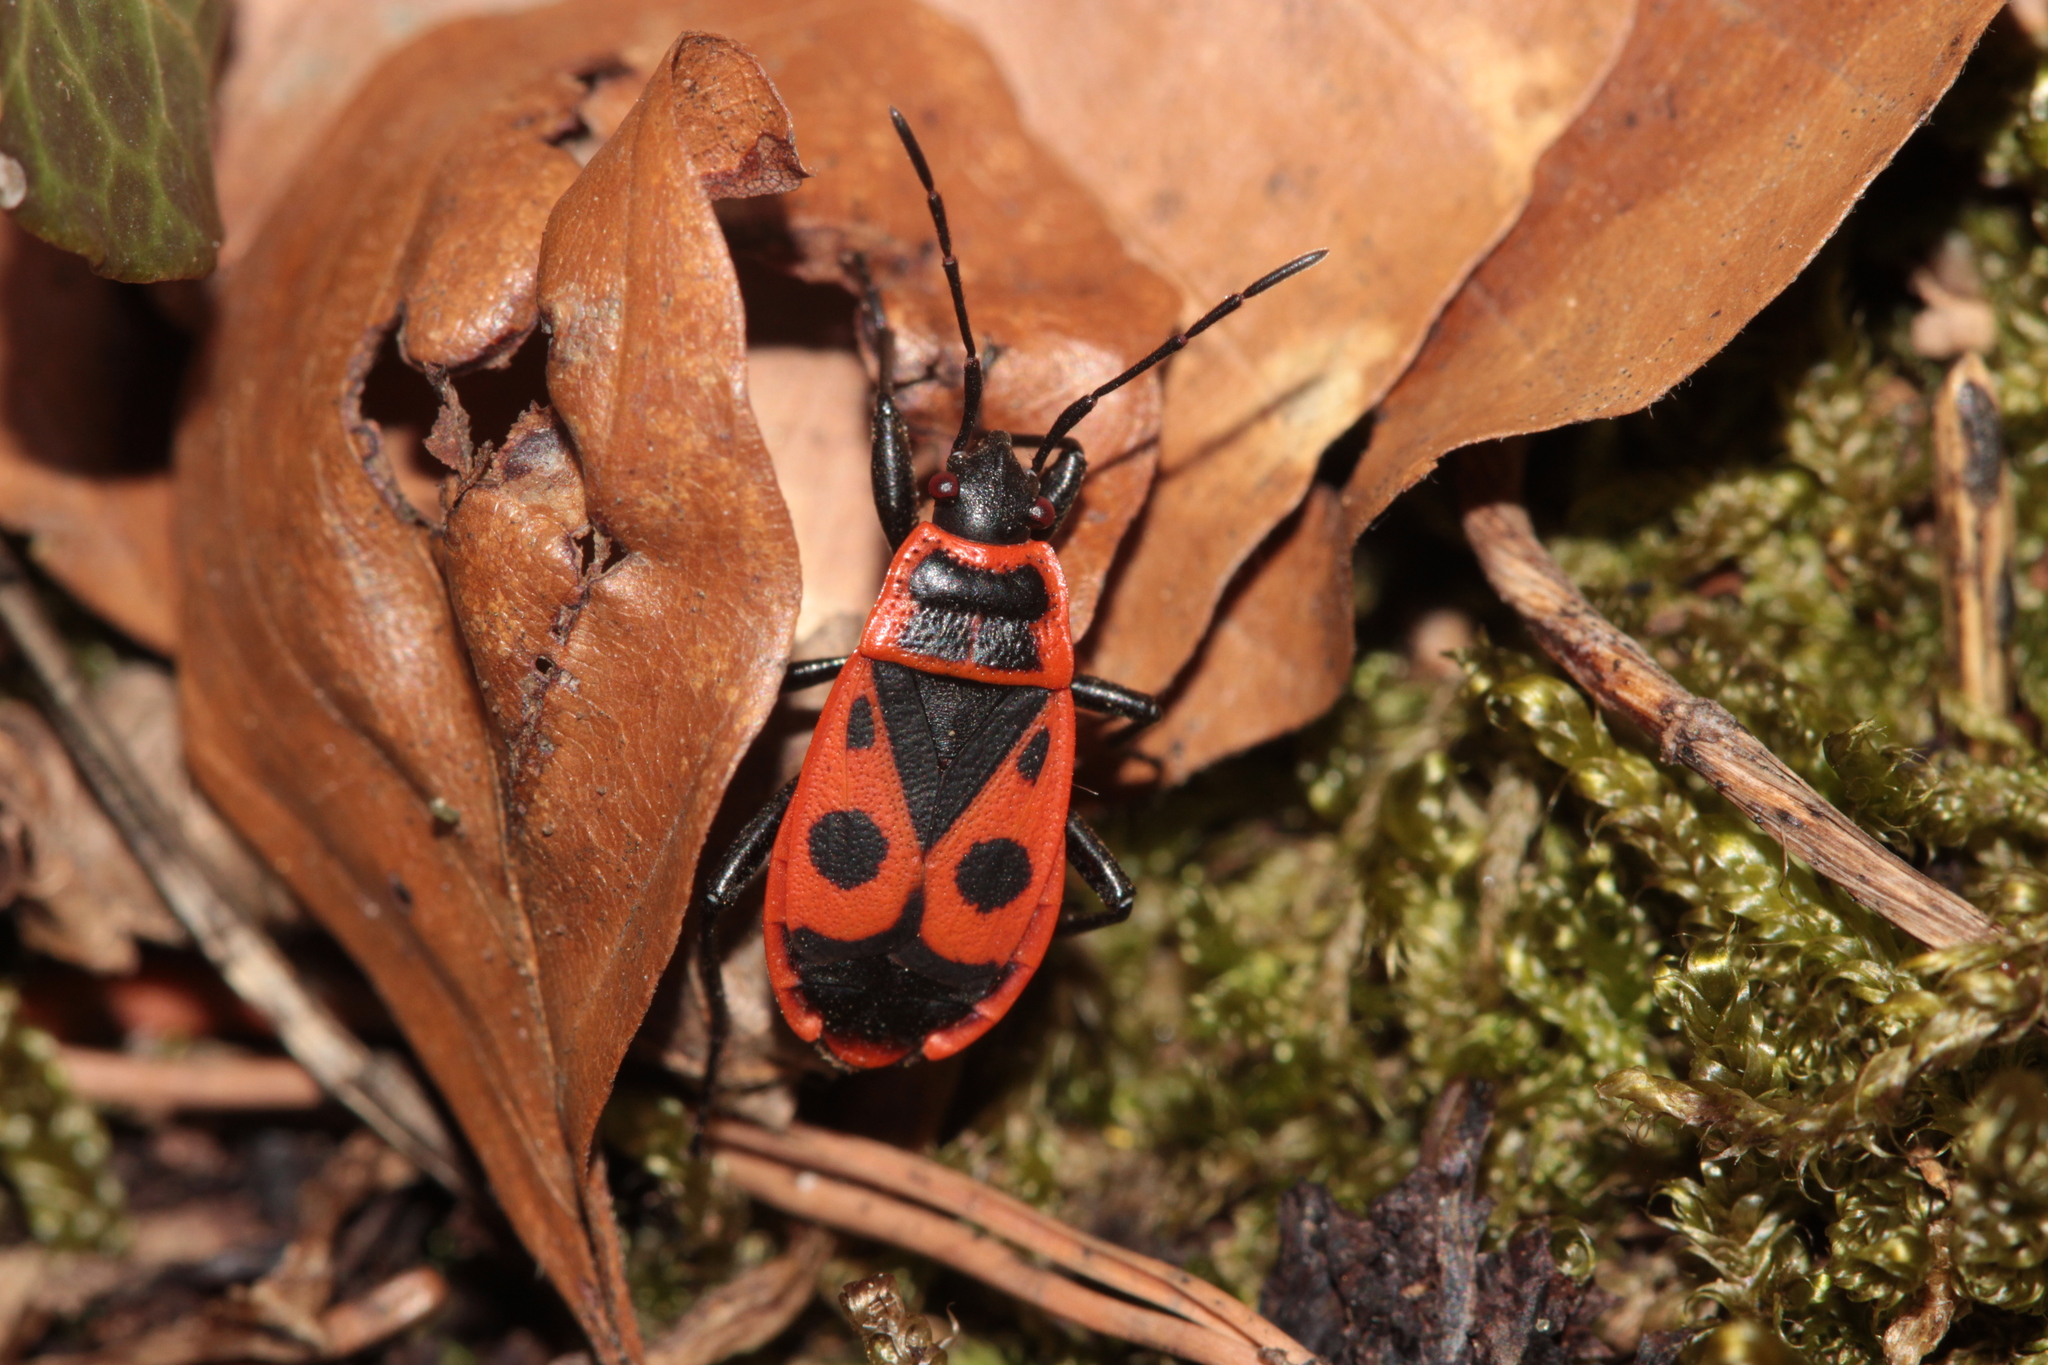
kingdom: Animalia
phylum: Arthropoda
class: Insecta
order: Hemiptera
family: Pyrrhocoridae
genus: Pyrrhocoris
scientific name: Pyrrhocoris apterus
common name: Firebug
